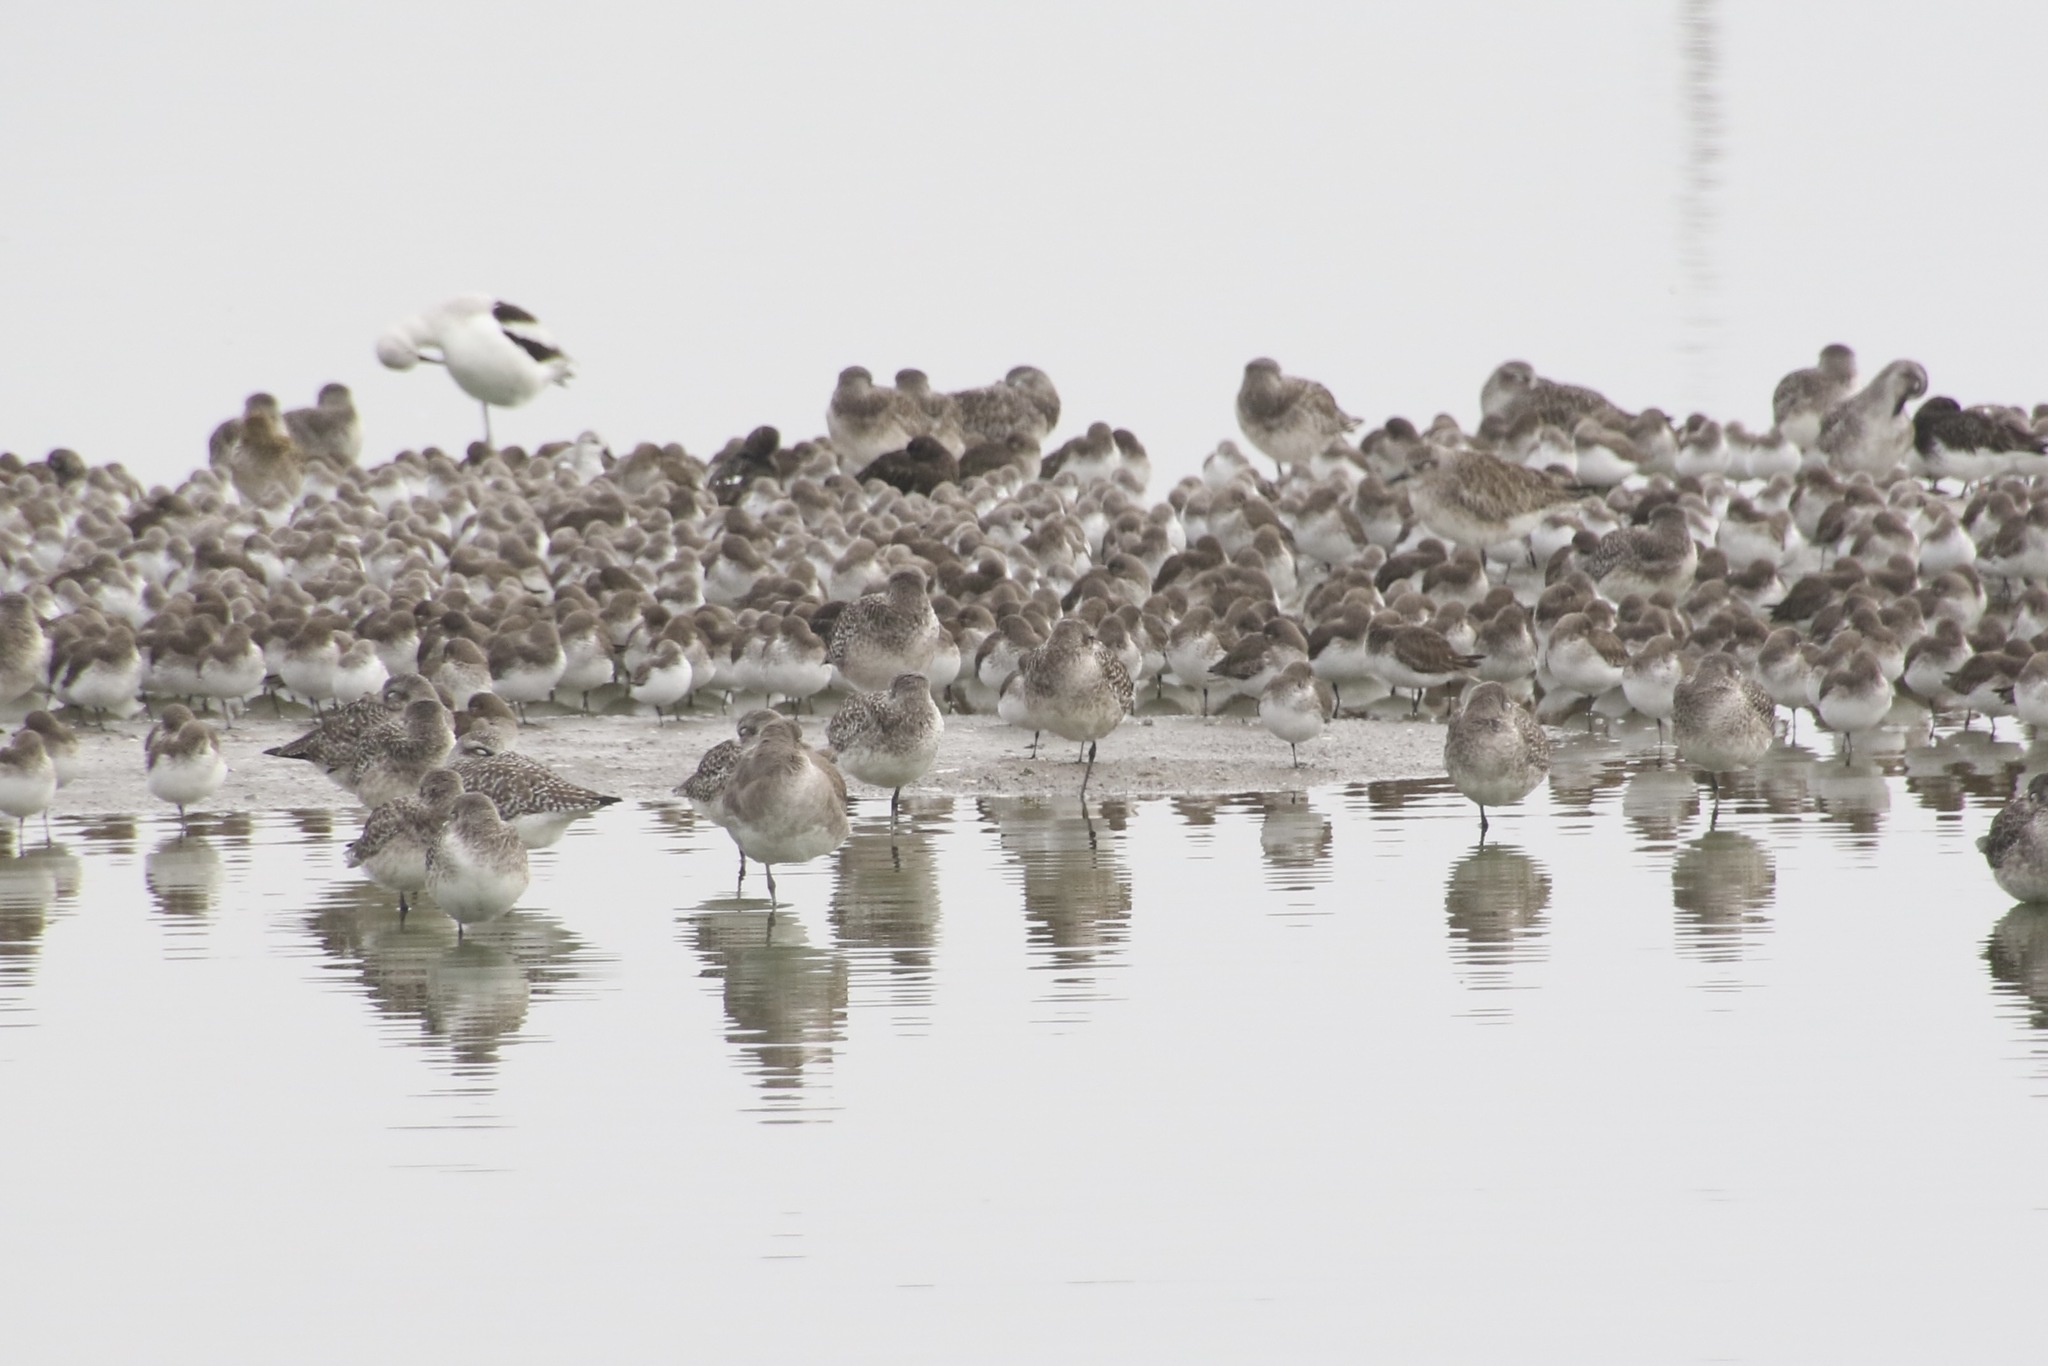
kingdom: Animalia
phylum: Chordata
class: Aves
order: Charadriiformes
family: Scolopacidae
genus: Calidris
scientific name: Calidris alpina
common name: Dunlin
